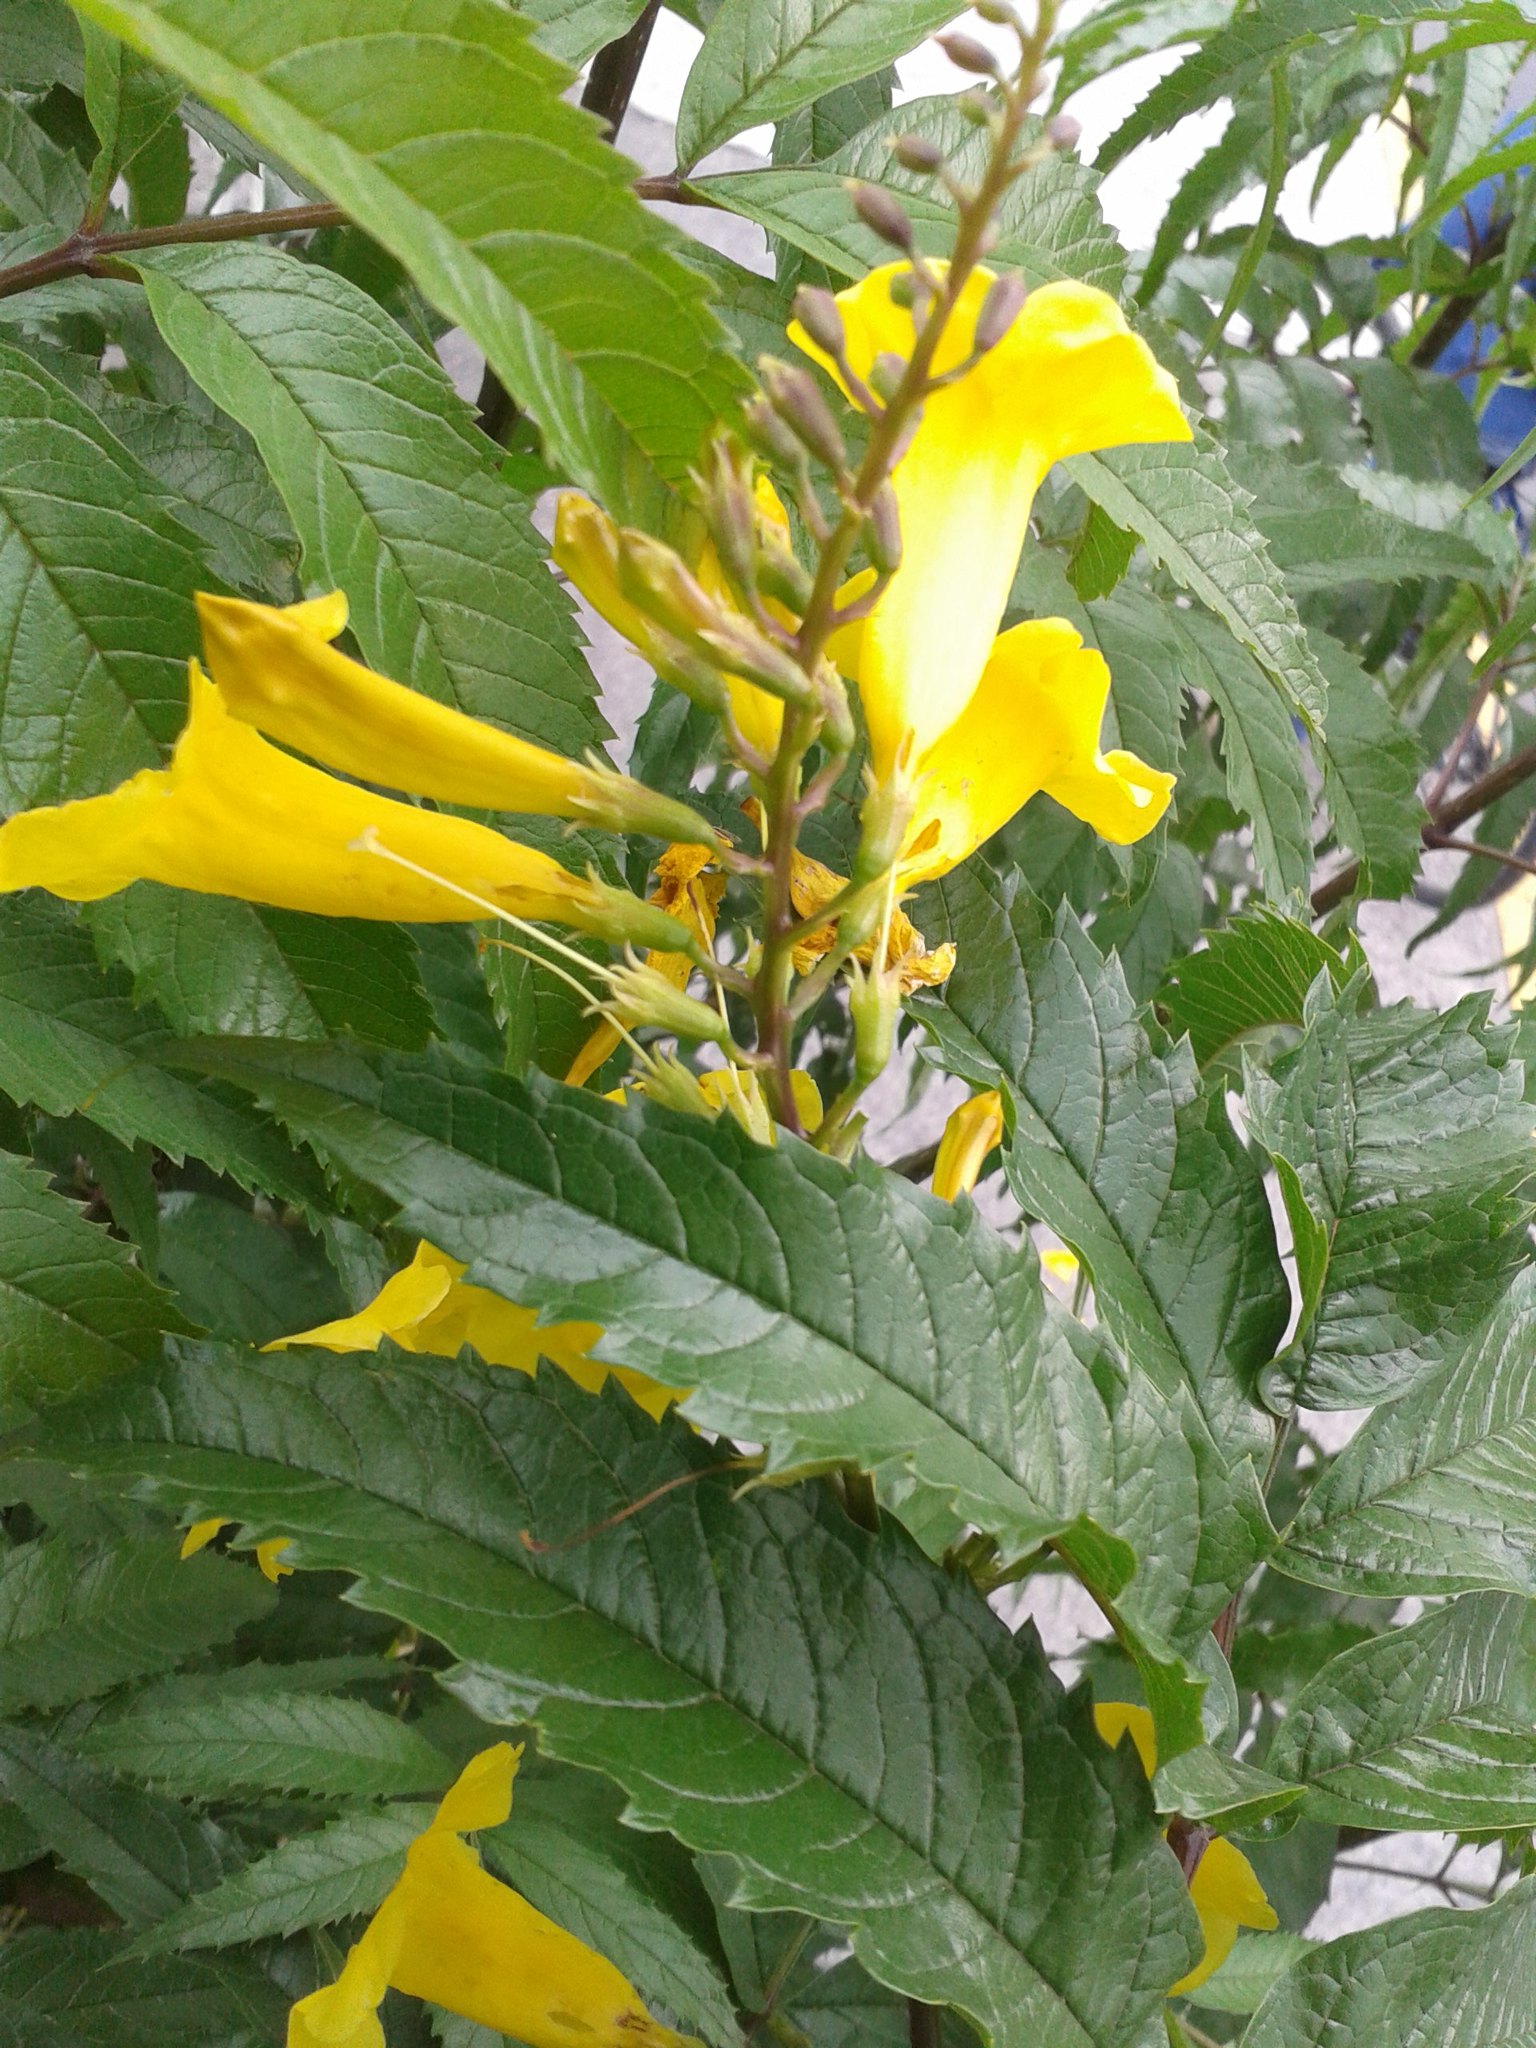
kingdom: Plantae
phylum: Tracheophyta
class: Magnoliopsida
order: Lamiales
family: Bignoniaceae
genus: Tecoma
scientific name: Tecoma stans
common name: Yellow trumpetbush
